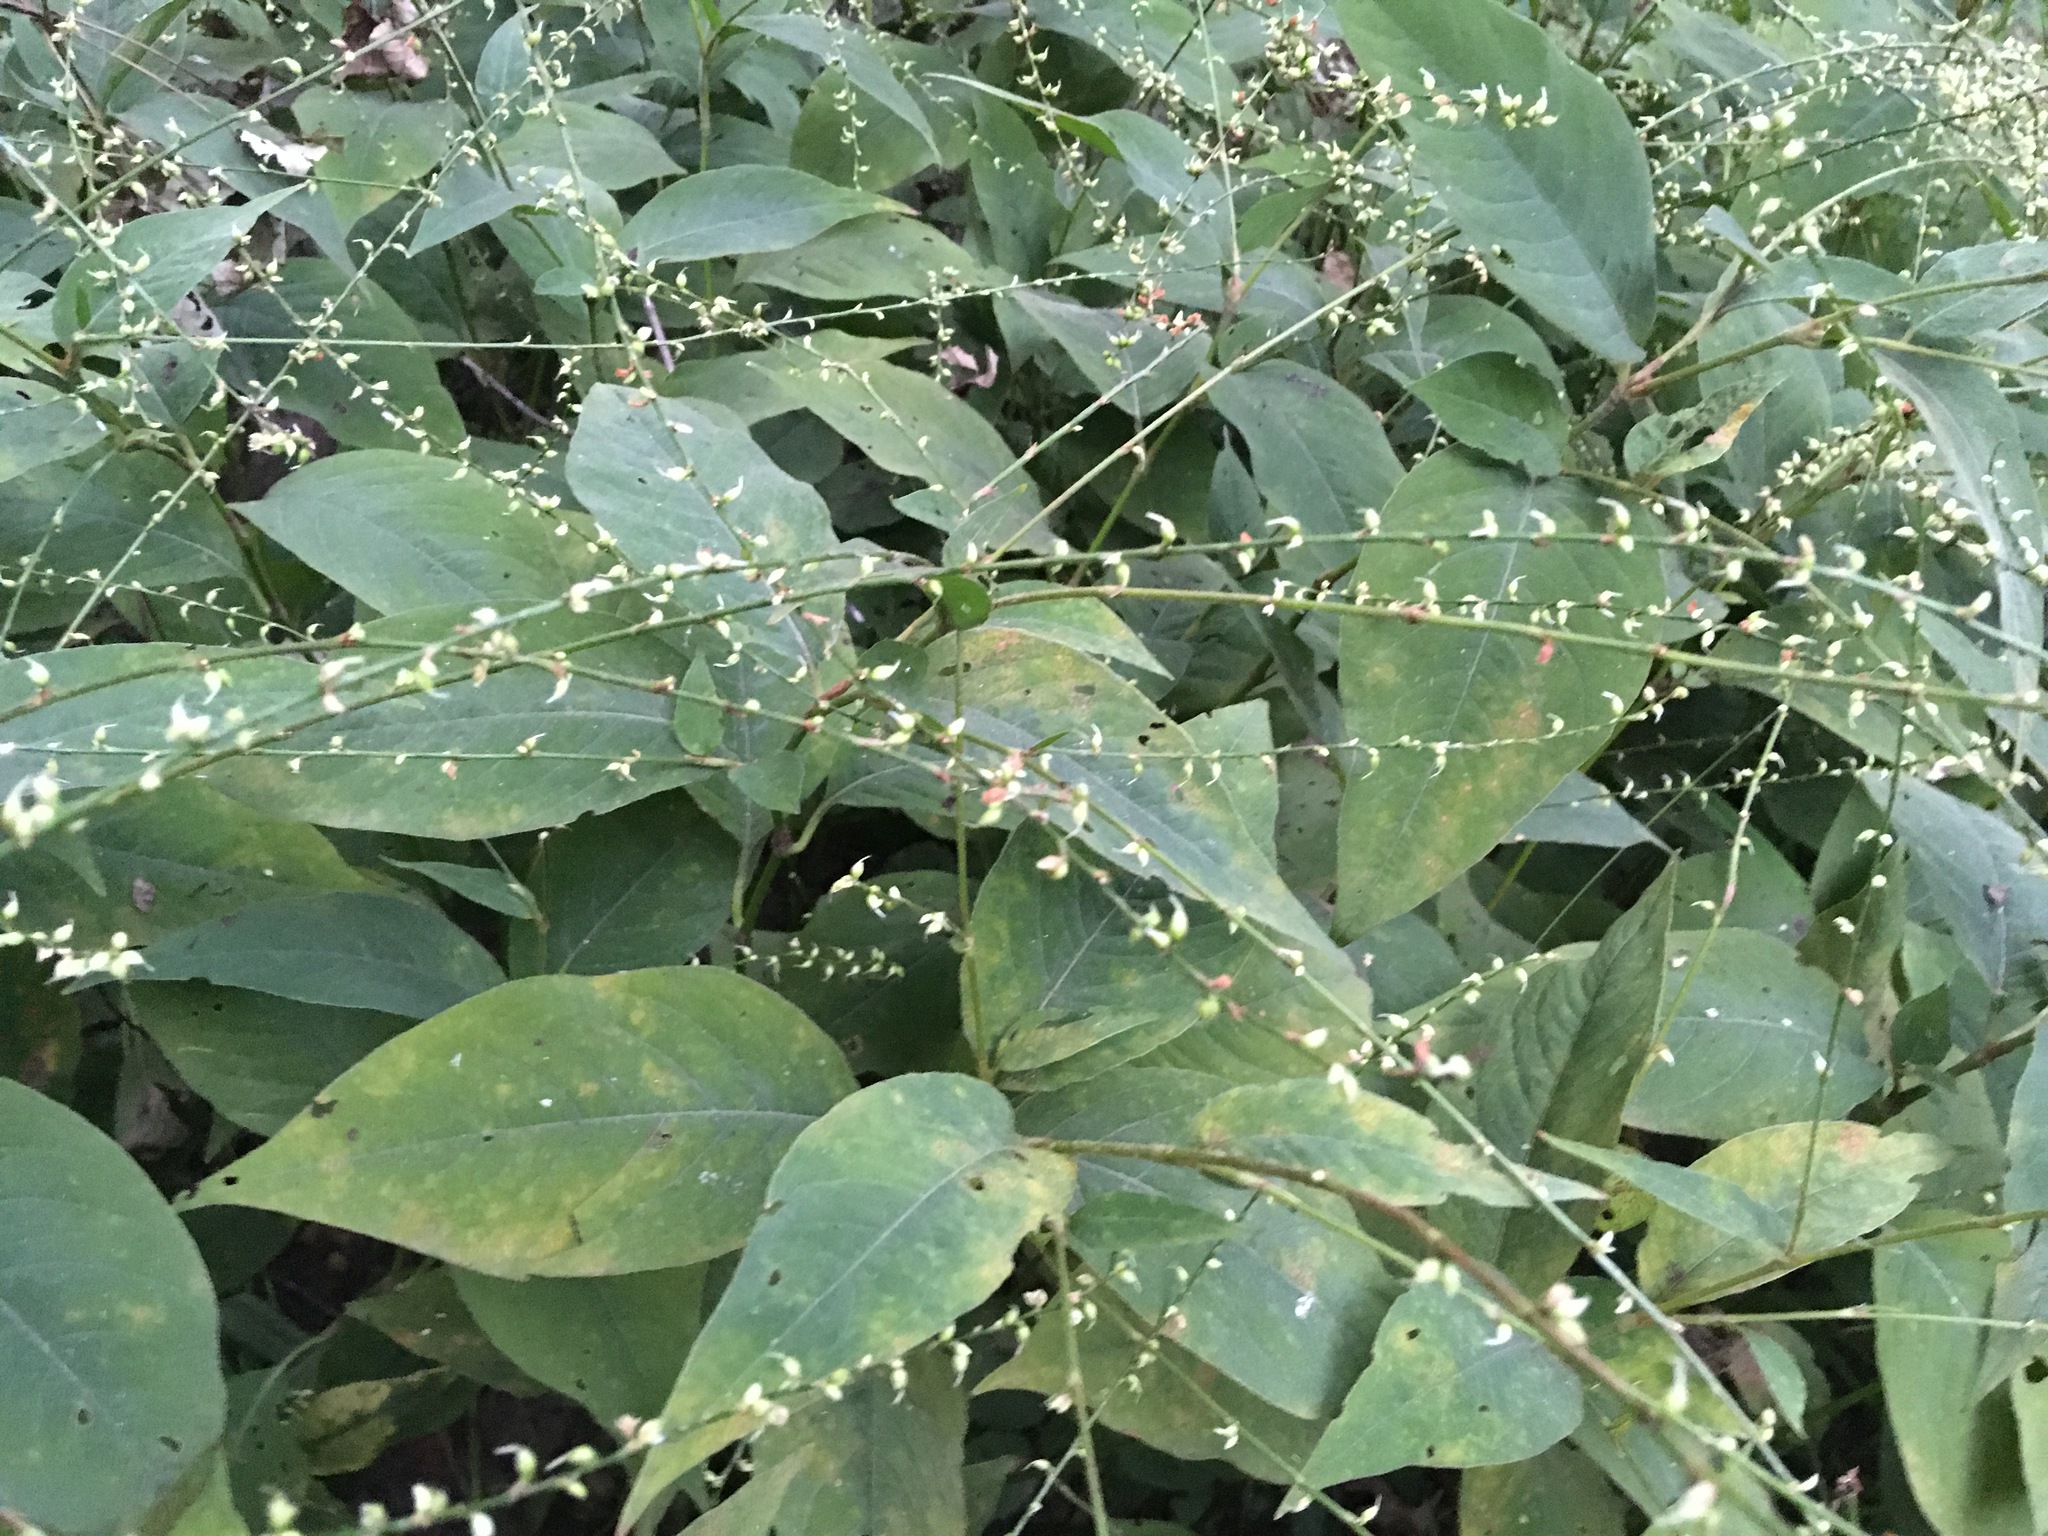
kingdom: Plantae
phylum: Tracheophyta
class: Magnoliopsida
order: Caryophyllales
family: Polygonaceae
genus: Persicaria
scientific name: Persicaria virginiana
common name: Jumpseed
